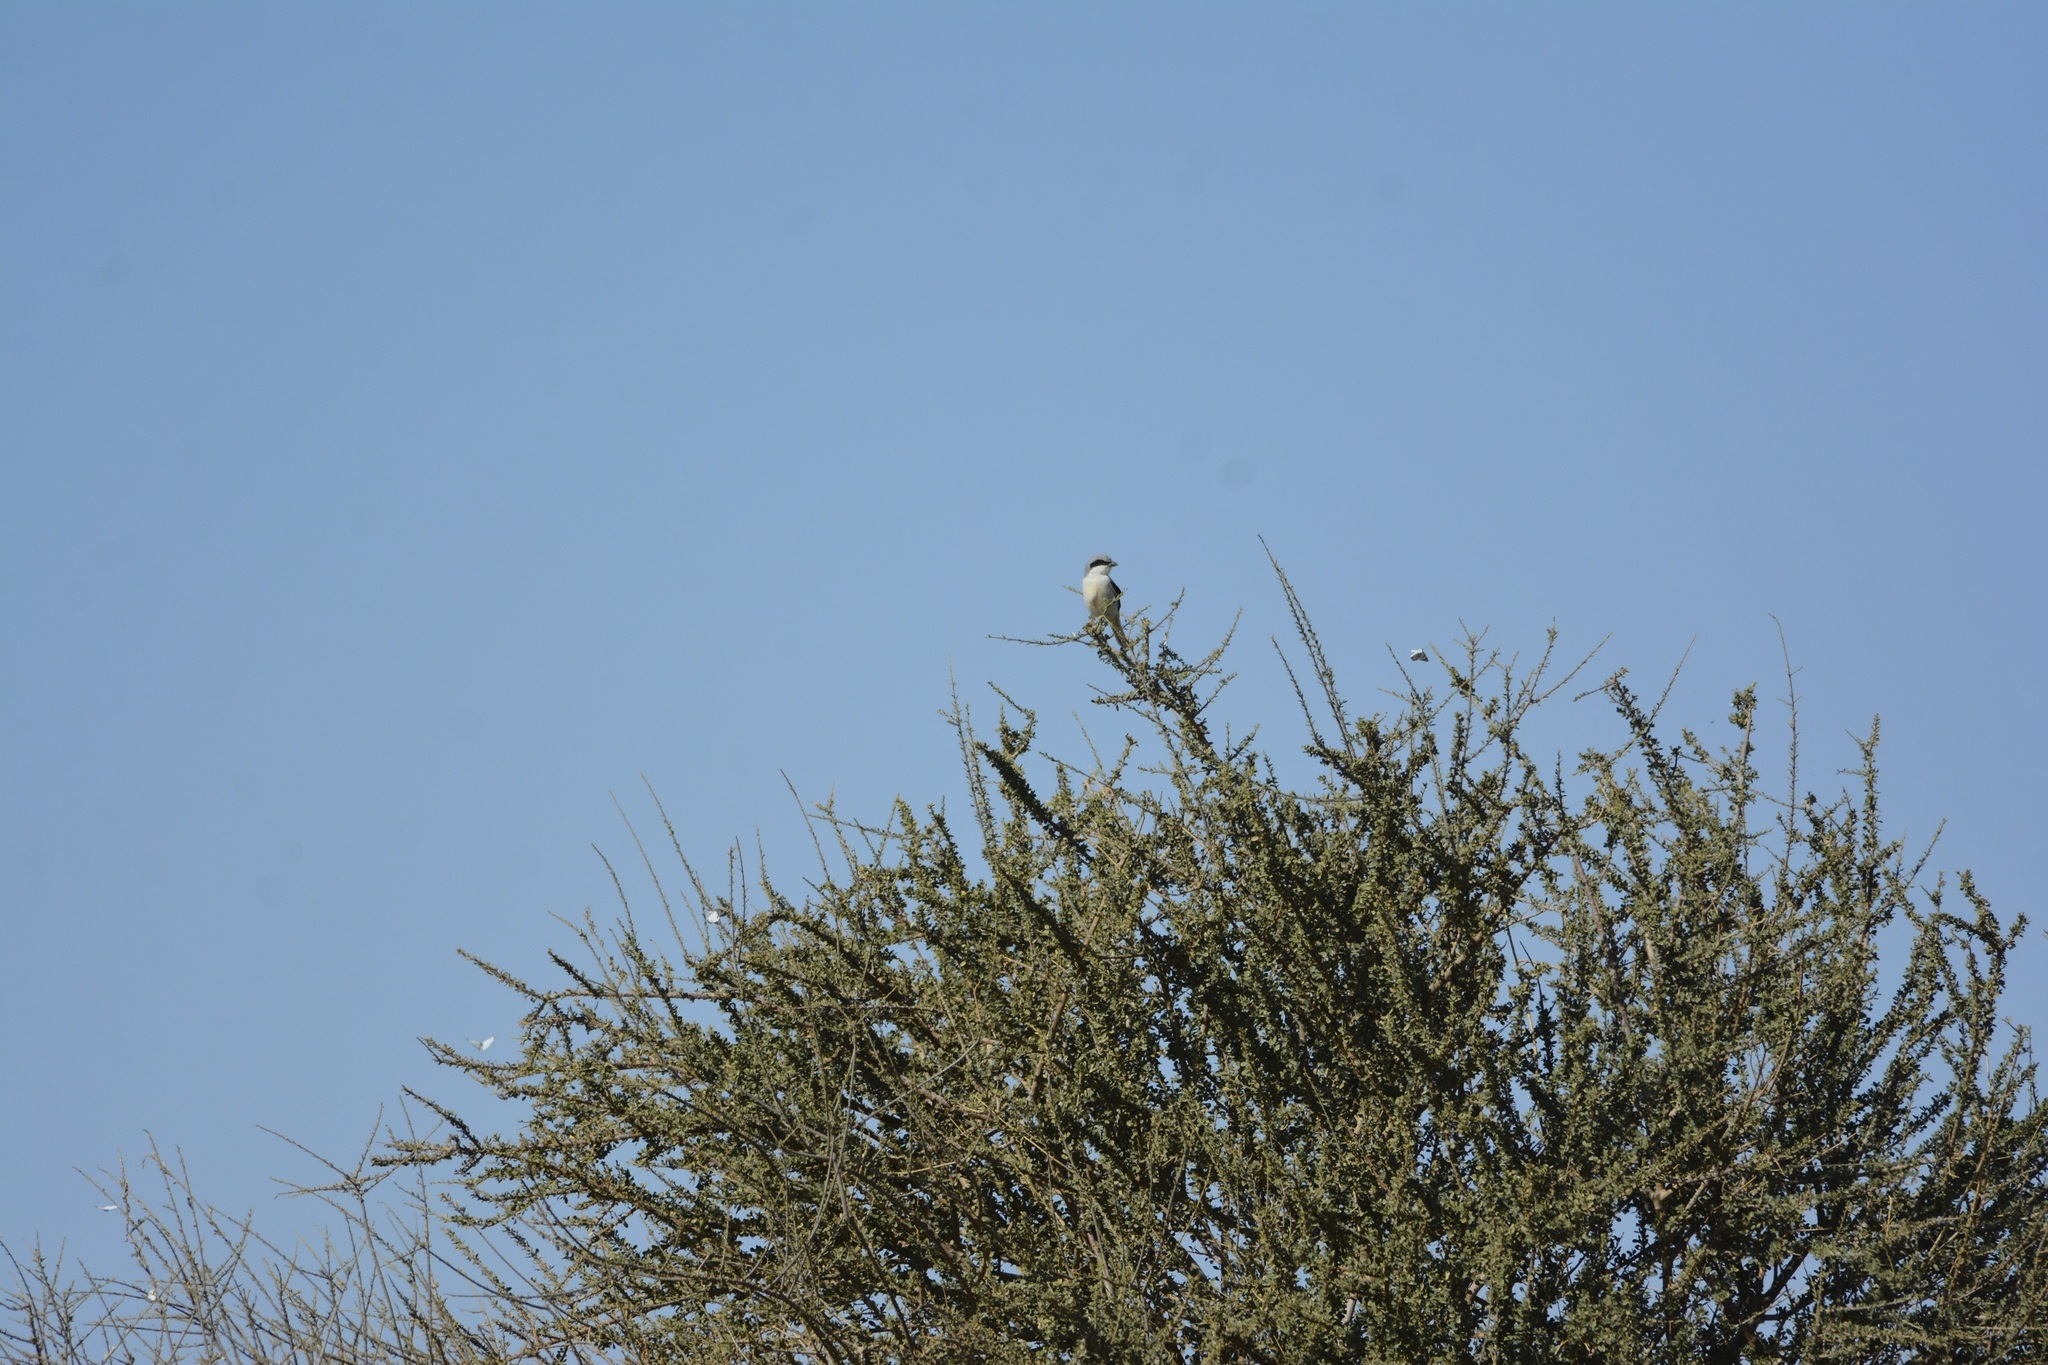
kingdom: Animalia
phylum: Chordata
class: Aves
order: Passeriformes
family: Laniidae
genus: Lanius
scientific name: Lanius excubitor
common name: Great grey shrike
